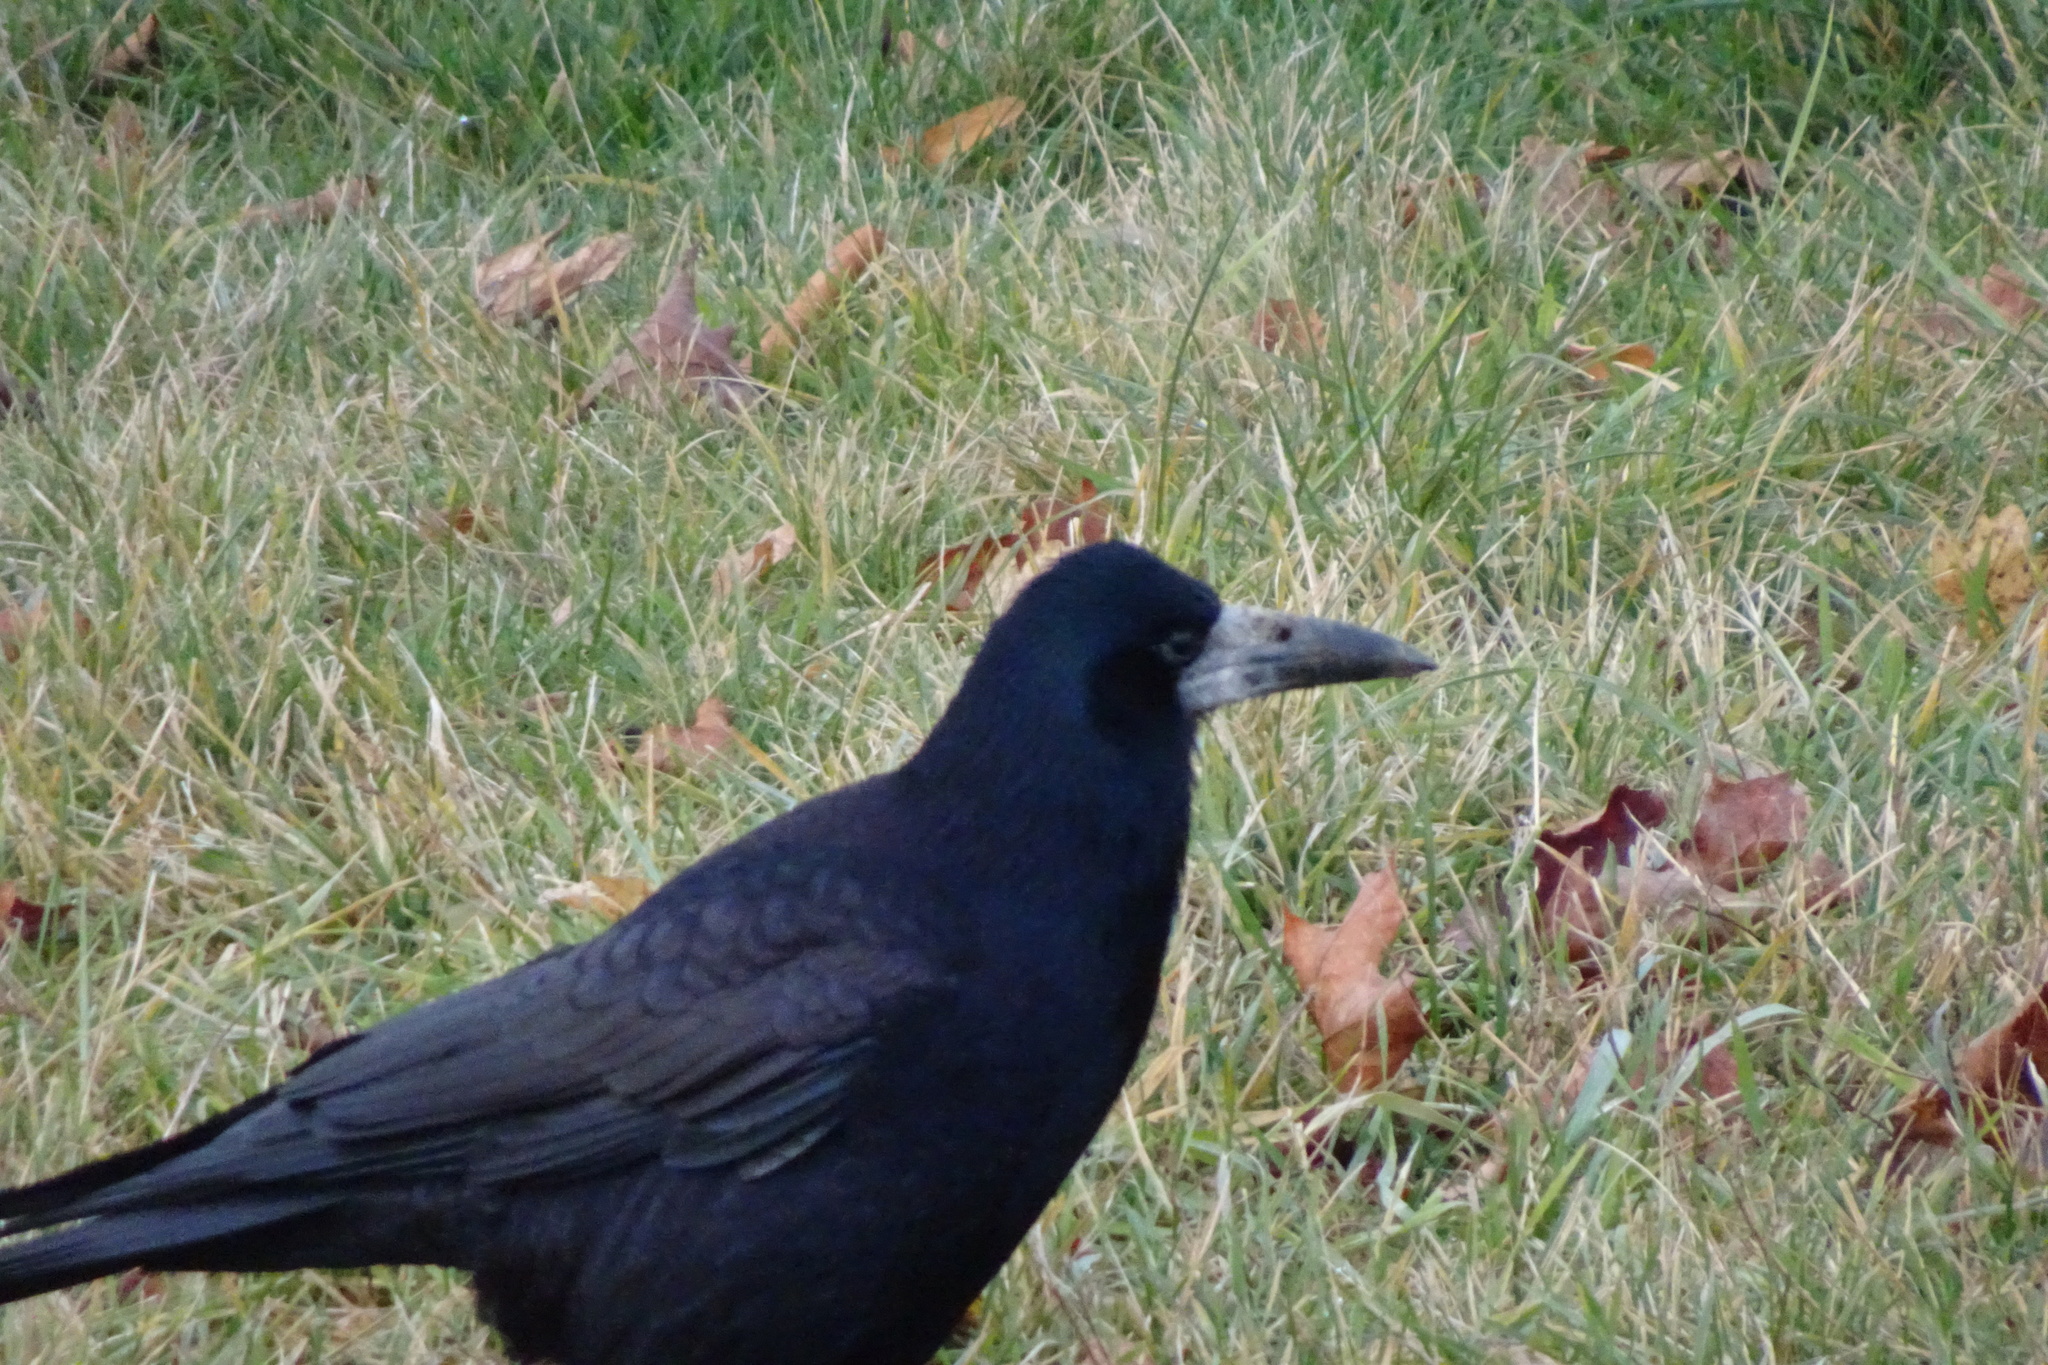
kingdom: Animalia
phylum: Chordata
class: Aves
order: Passeriformes
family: Corvidae
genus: Corvus
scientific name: Corvus frugilegus
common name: Rook
